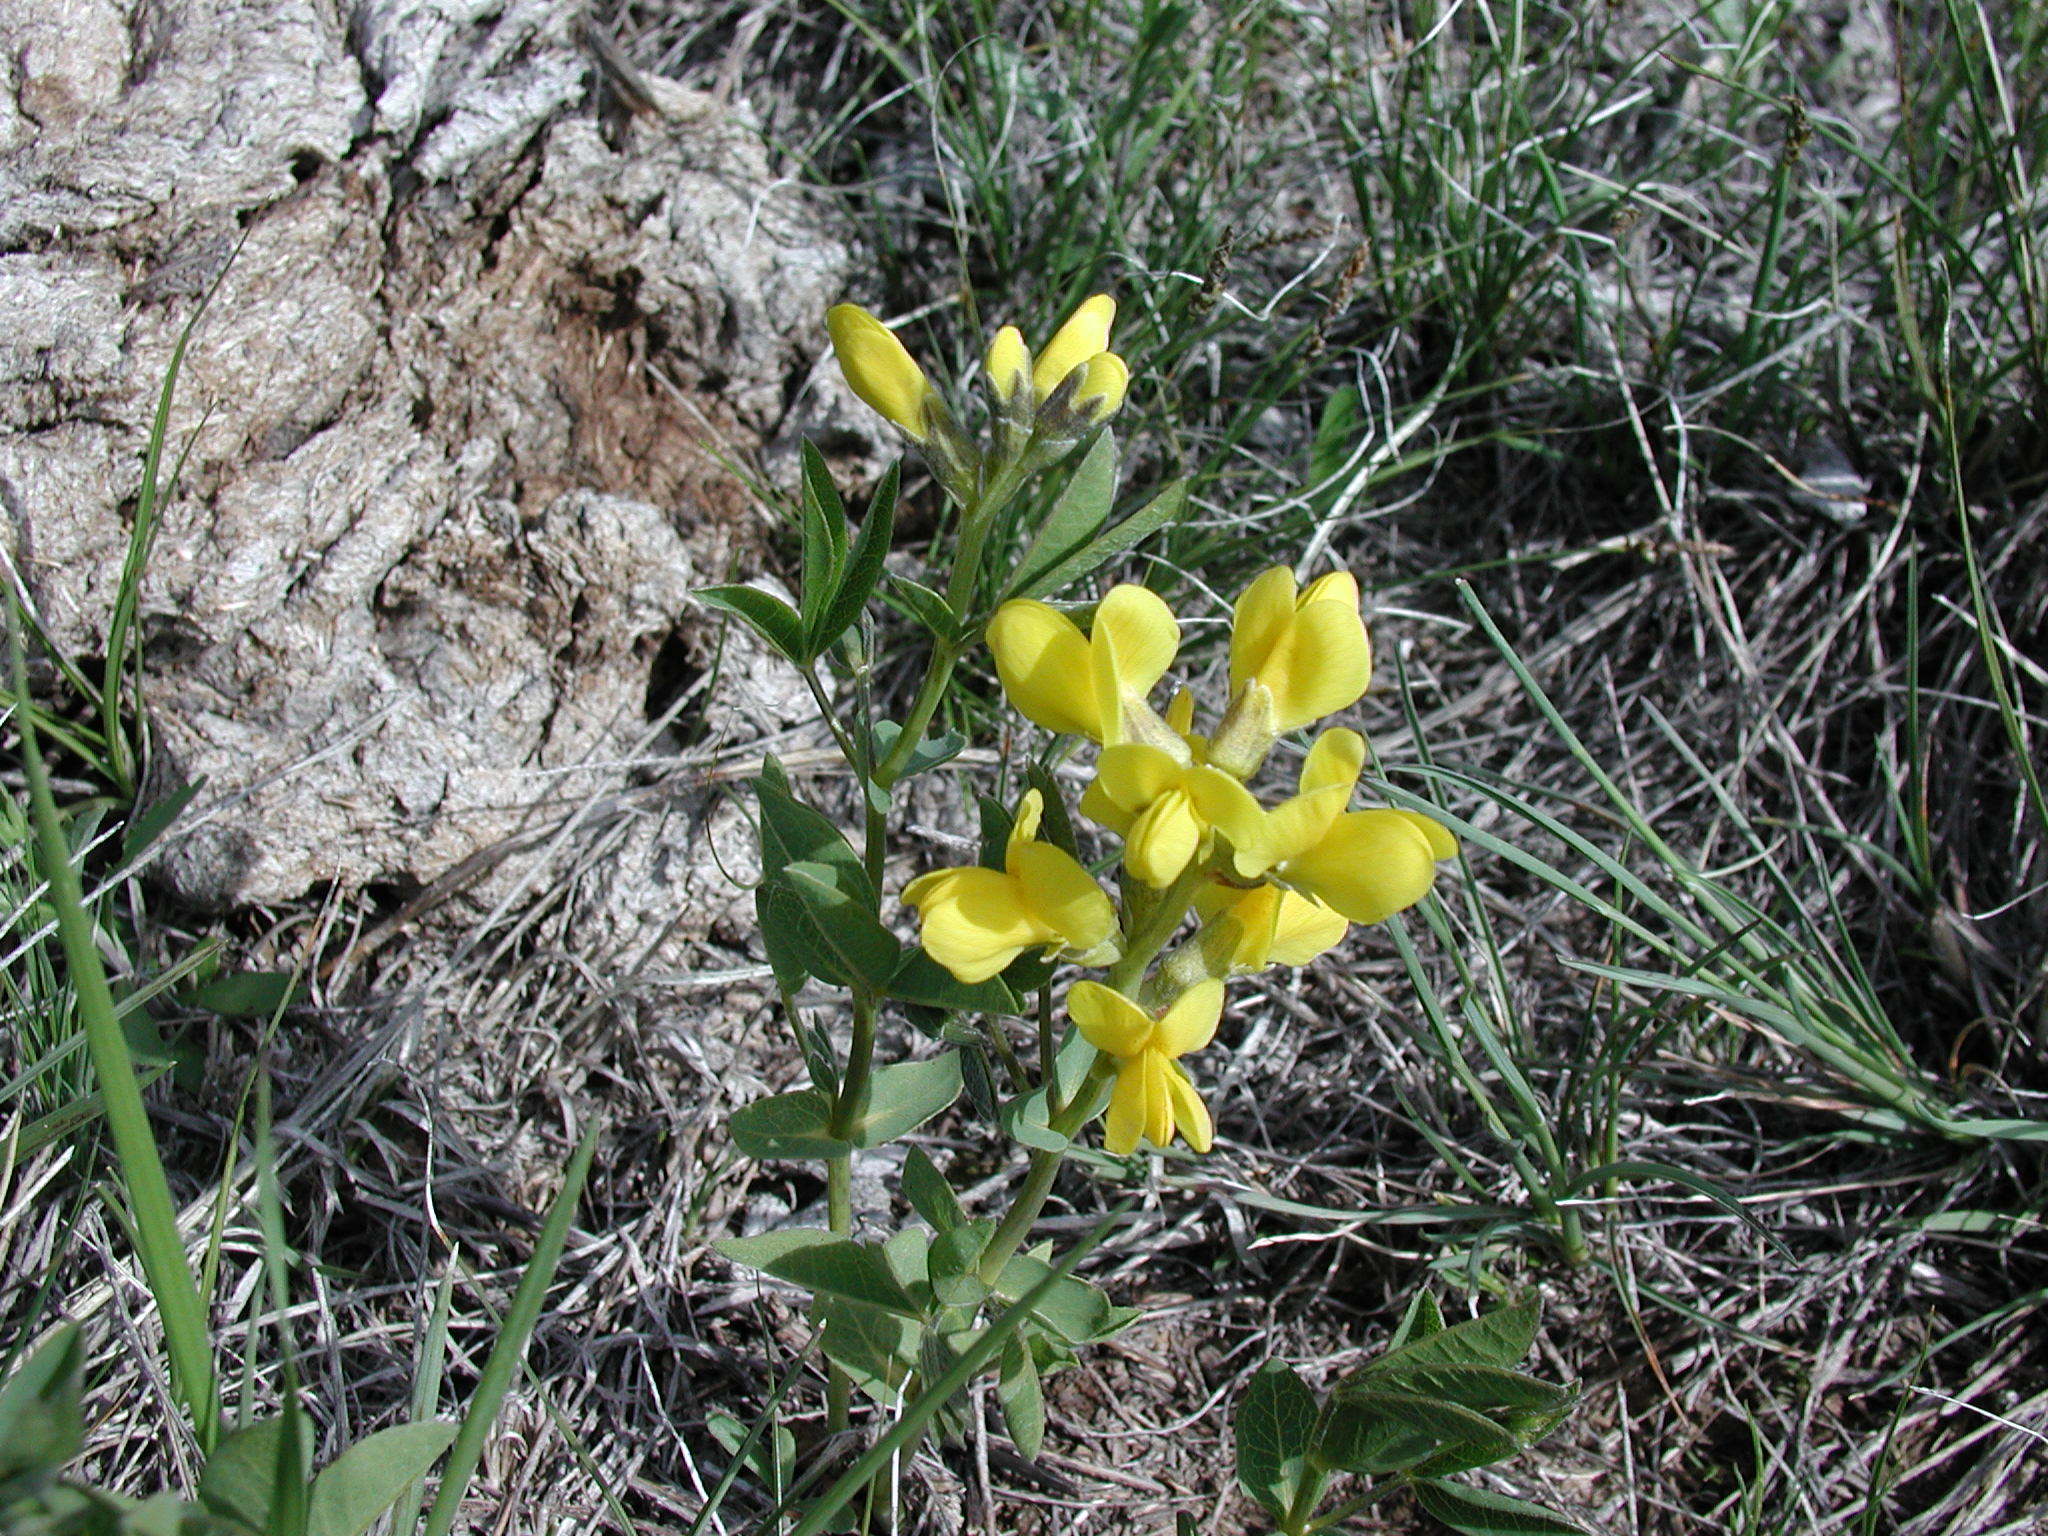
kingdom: Plantae
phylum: Tracheophyta
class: Magnoliopsida
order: Fabales
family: Fabaceae
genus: Thermopsis
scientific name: Thermopsis rhombifolia
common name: Circle-pod-pea
